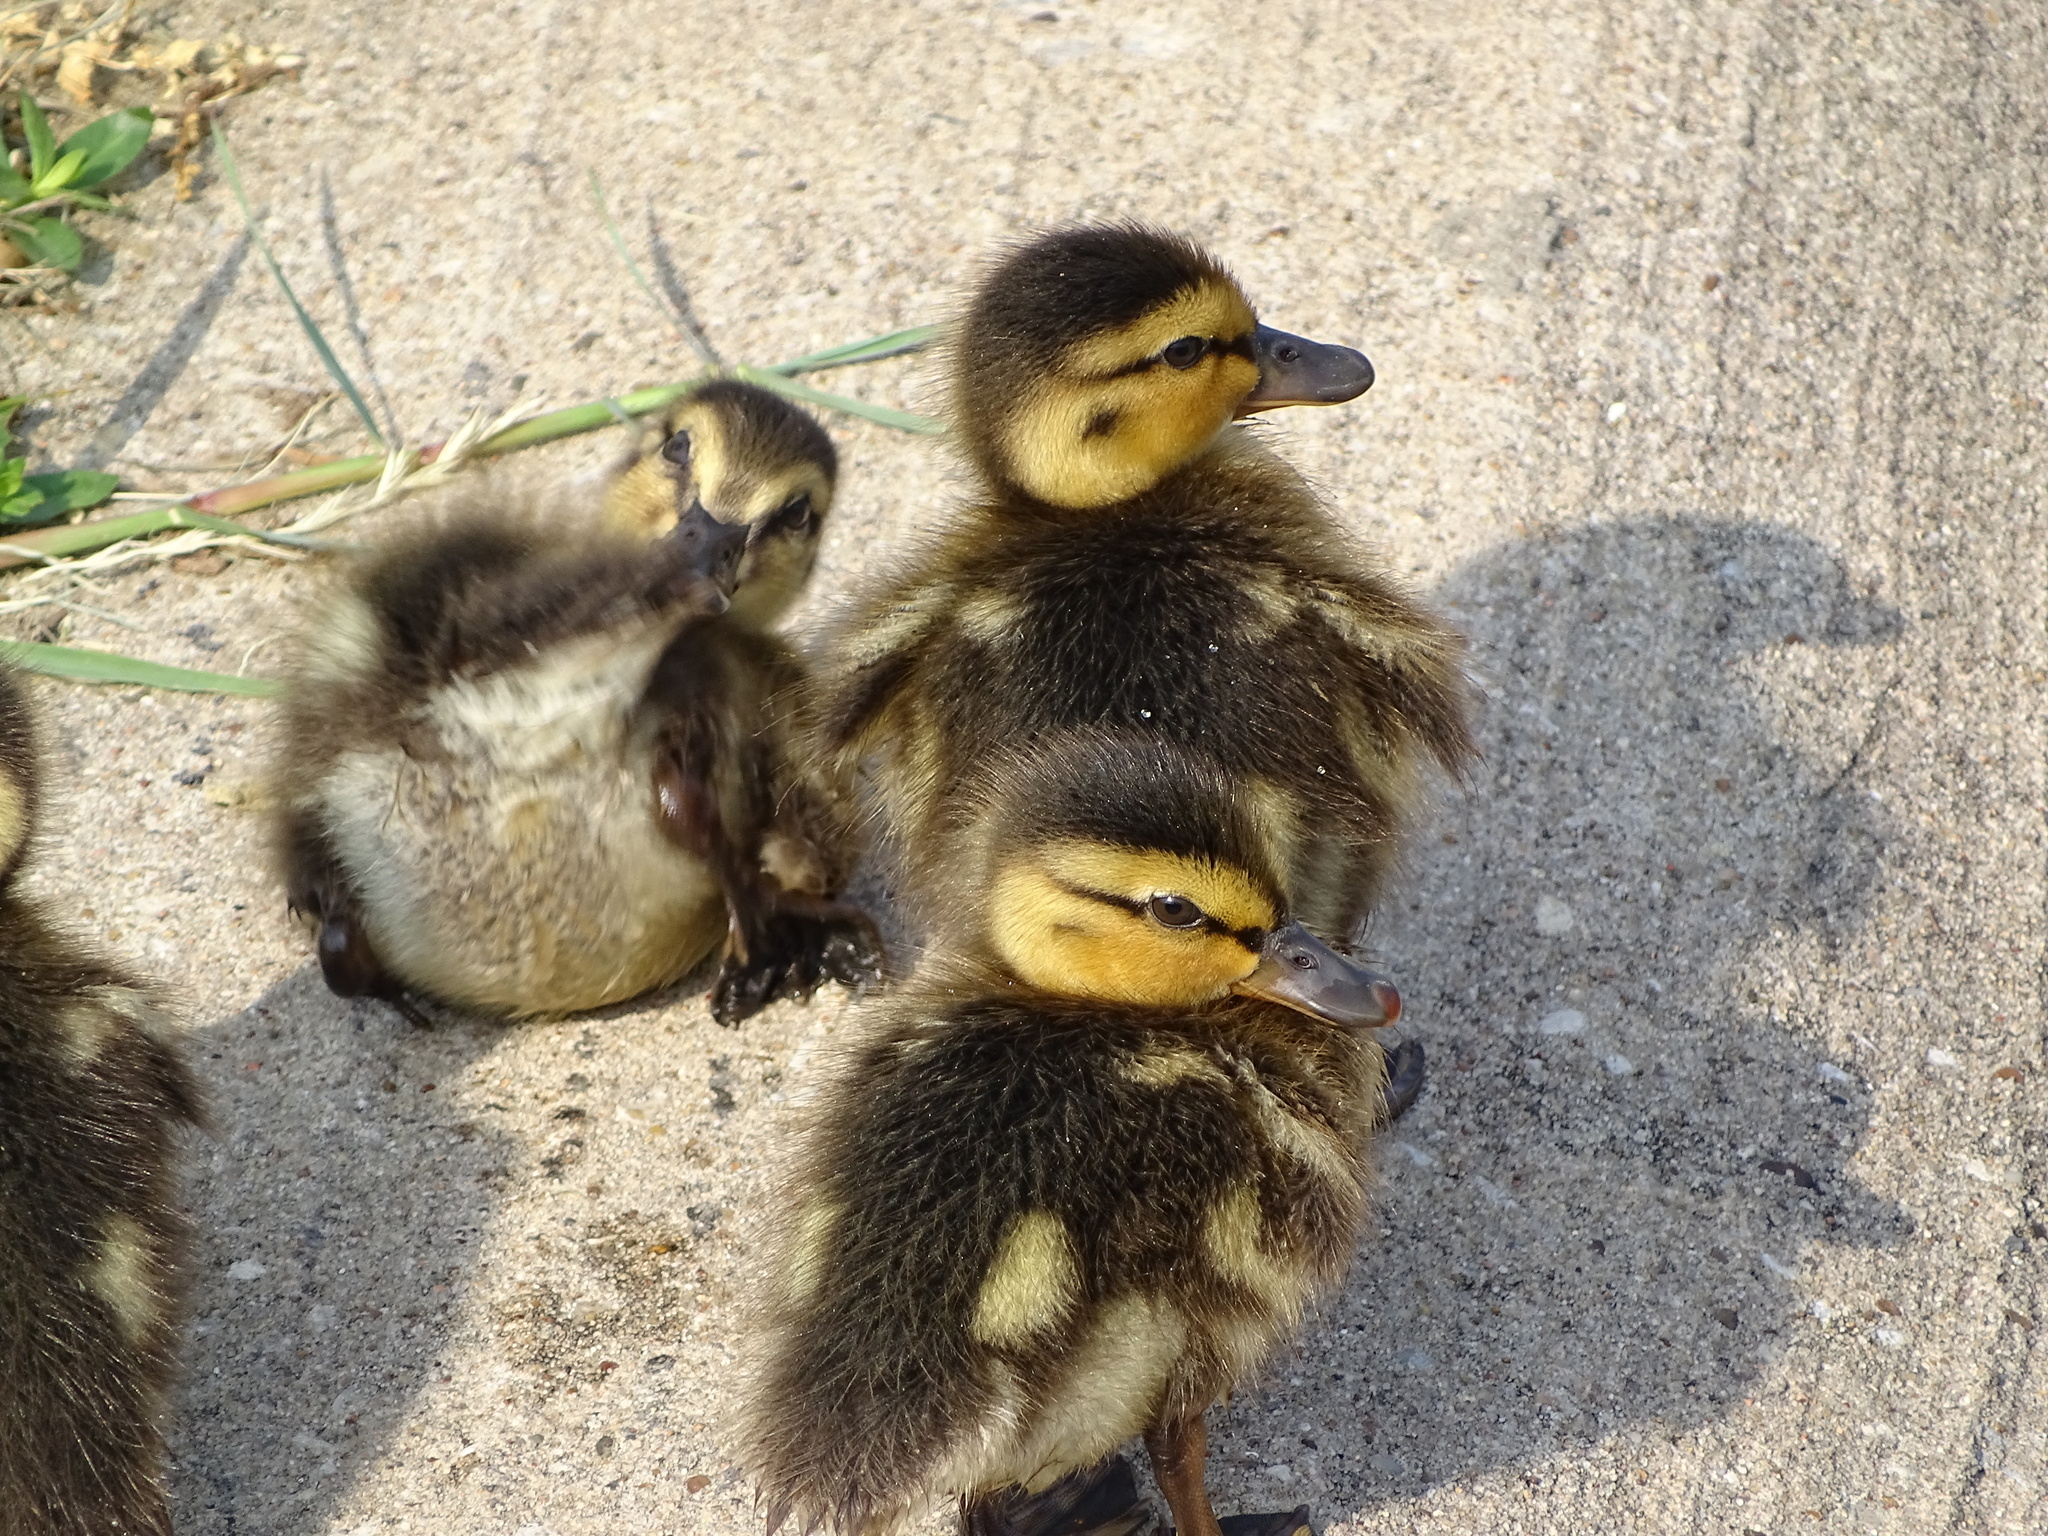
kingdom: Animalia
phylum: Chordata
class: Aves
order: Anseriformes
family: Anatidae
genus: Anas
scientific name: Anas platyrhynchos
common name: Mallard
